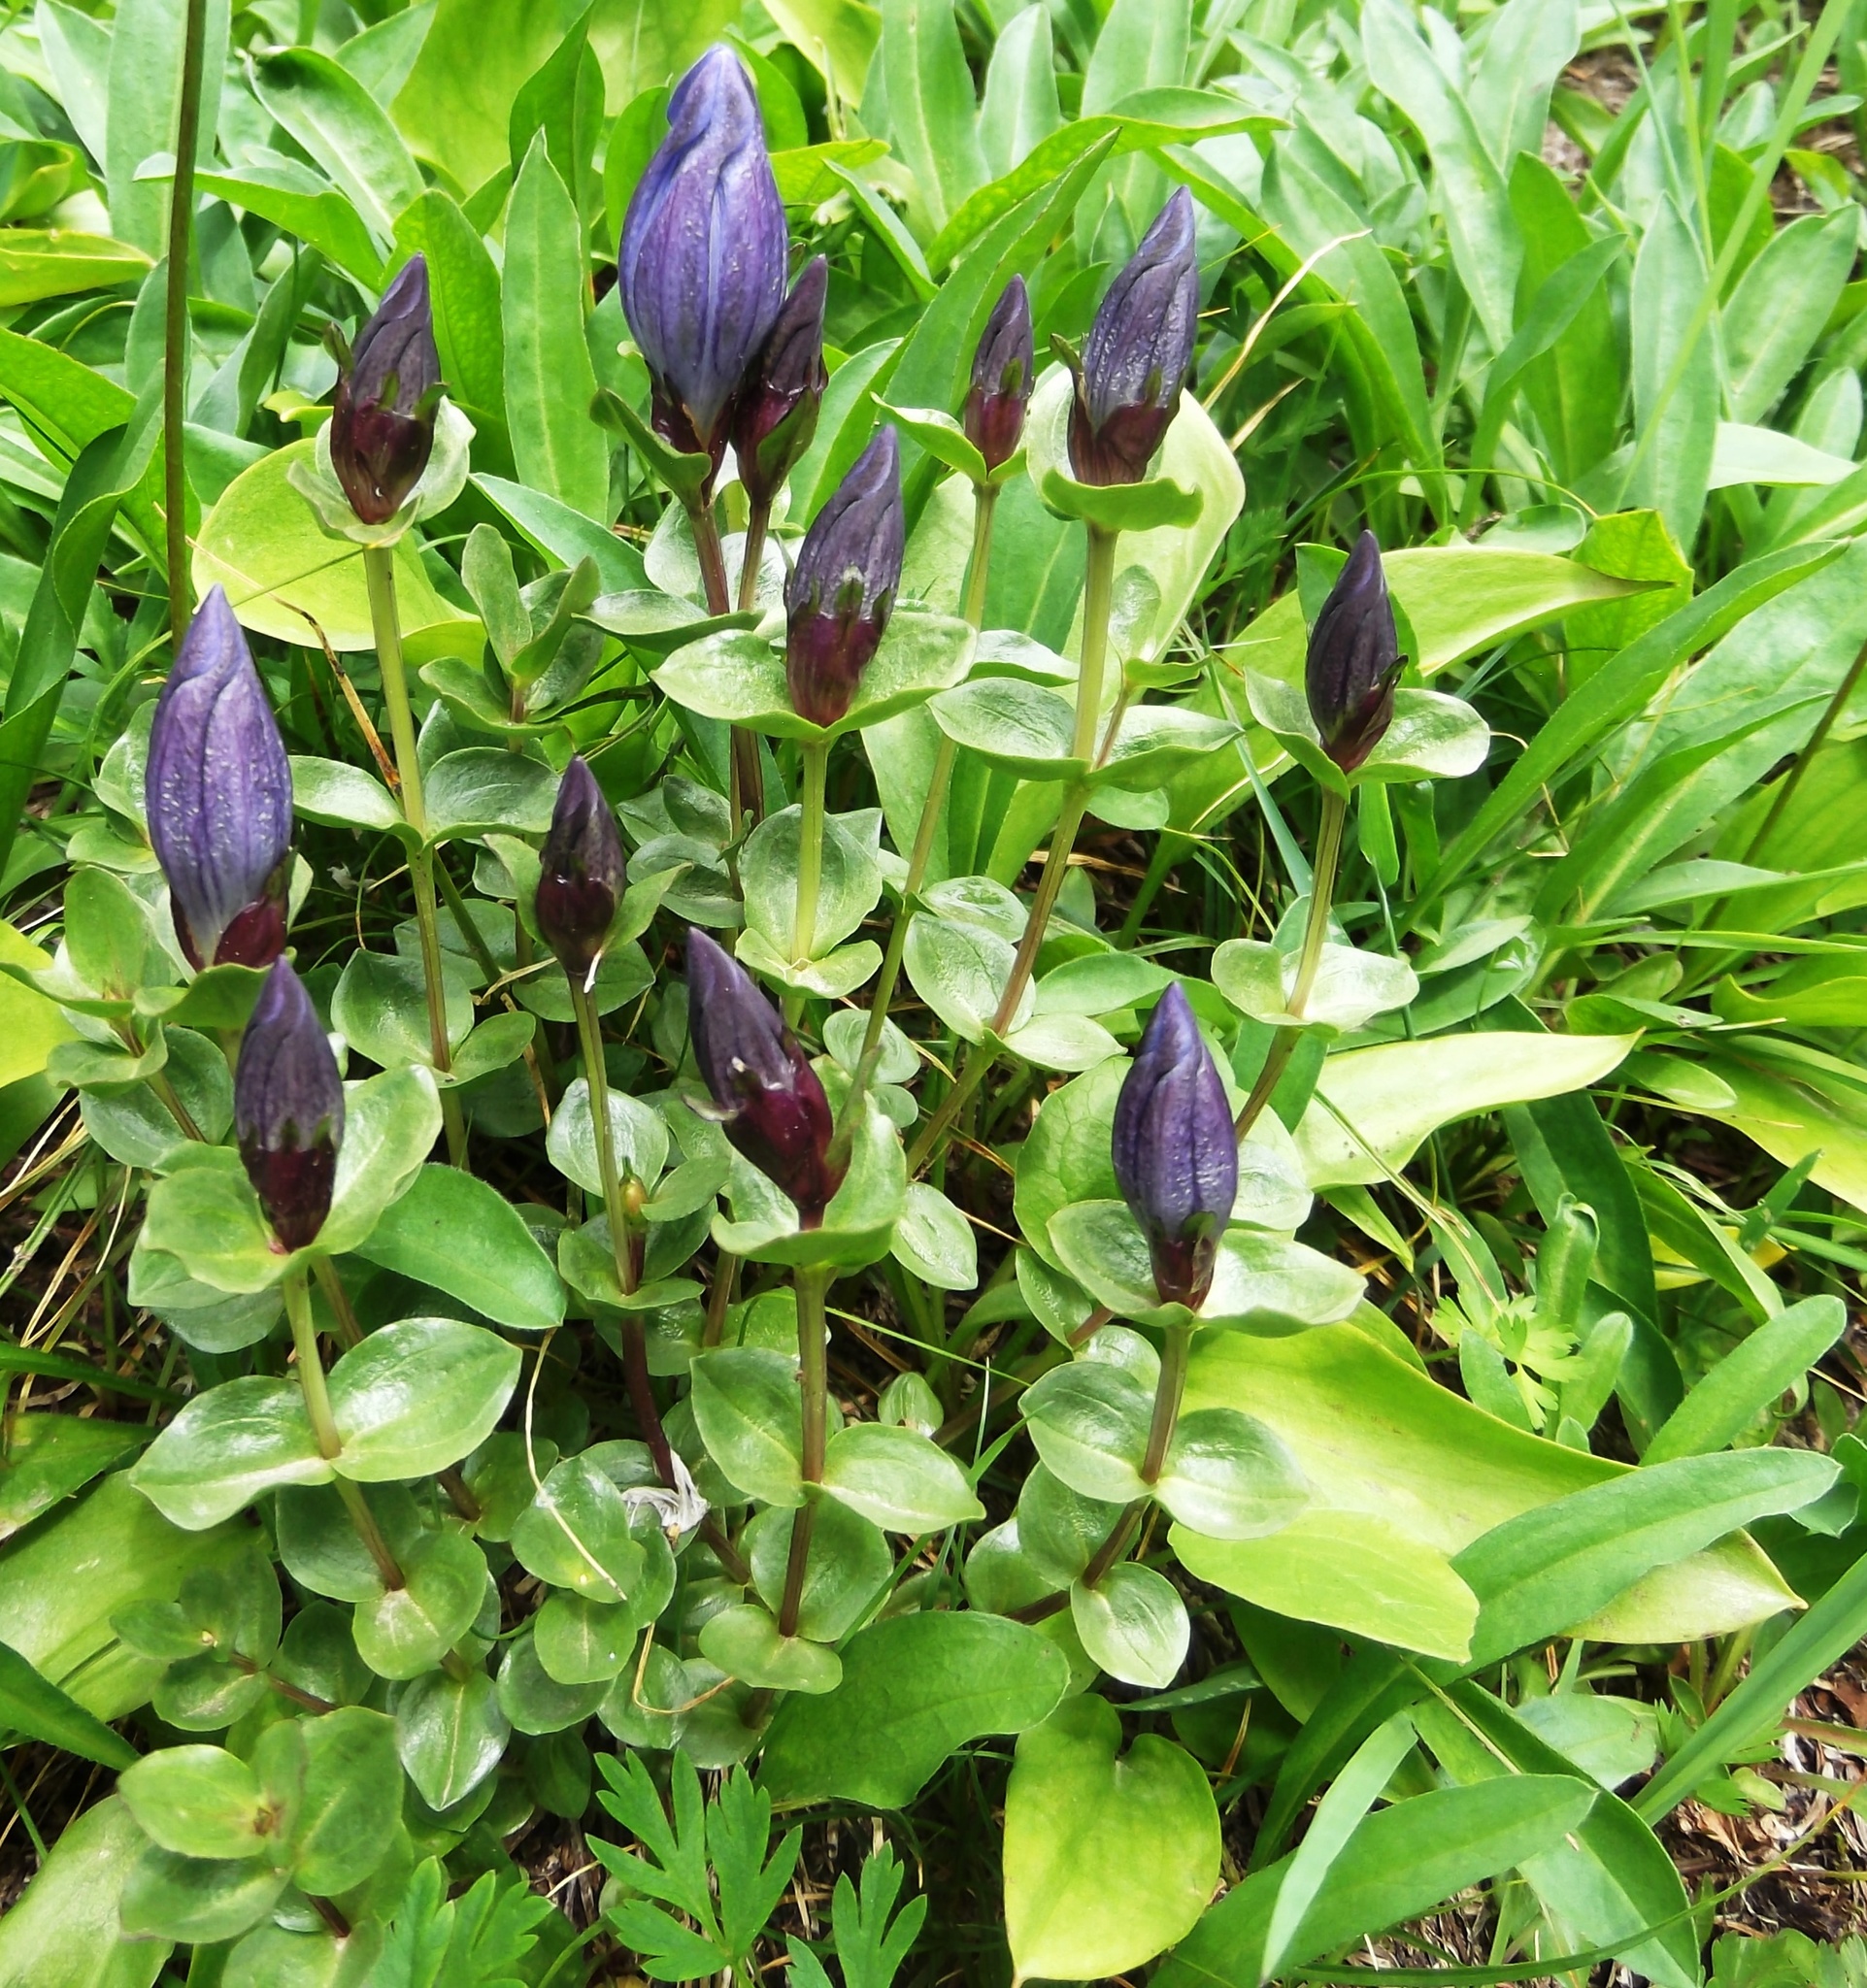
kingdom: Plantae
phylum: Tracheophyta
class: Magnoliopsida
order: Gentianales
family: Gentianaceae
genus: Gentiana
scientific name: Gentiana calycosa
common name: Rainier pleated gentian
